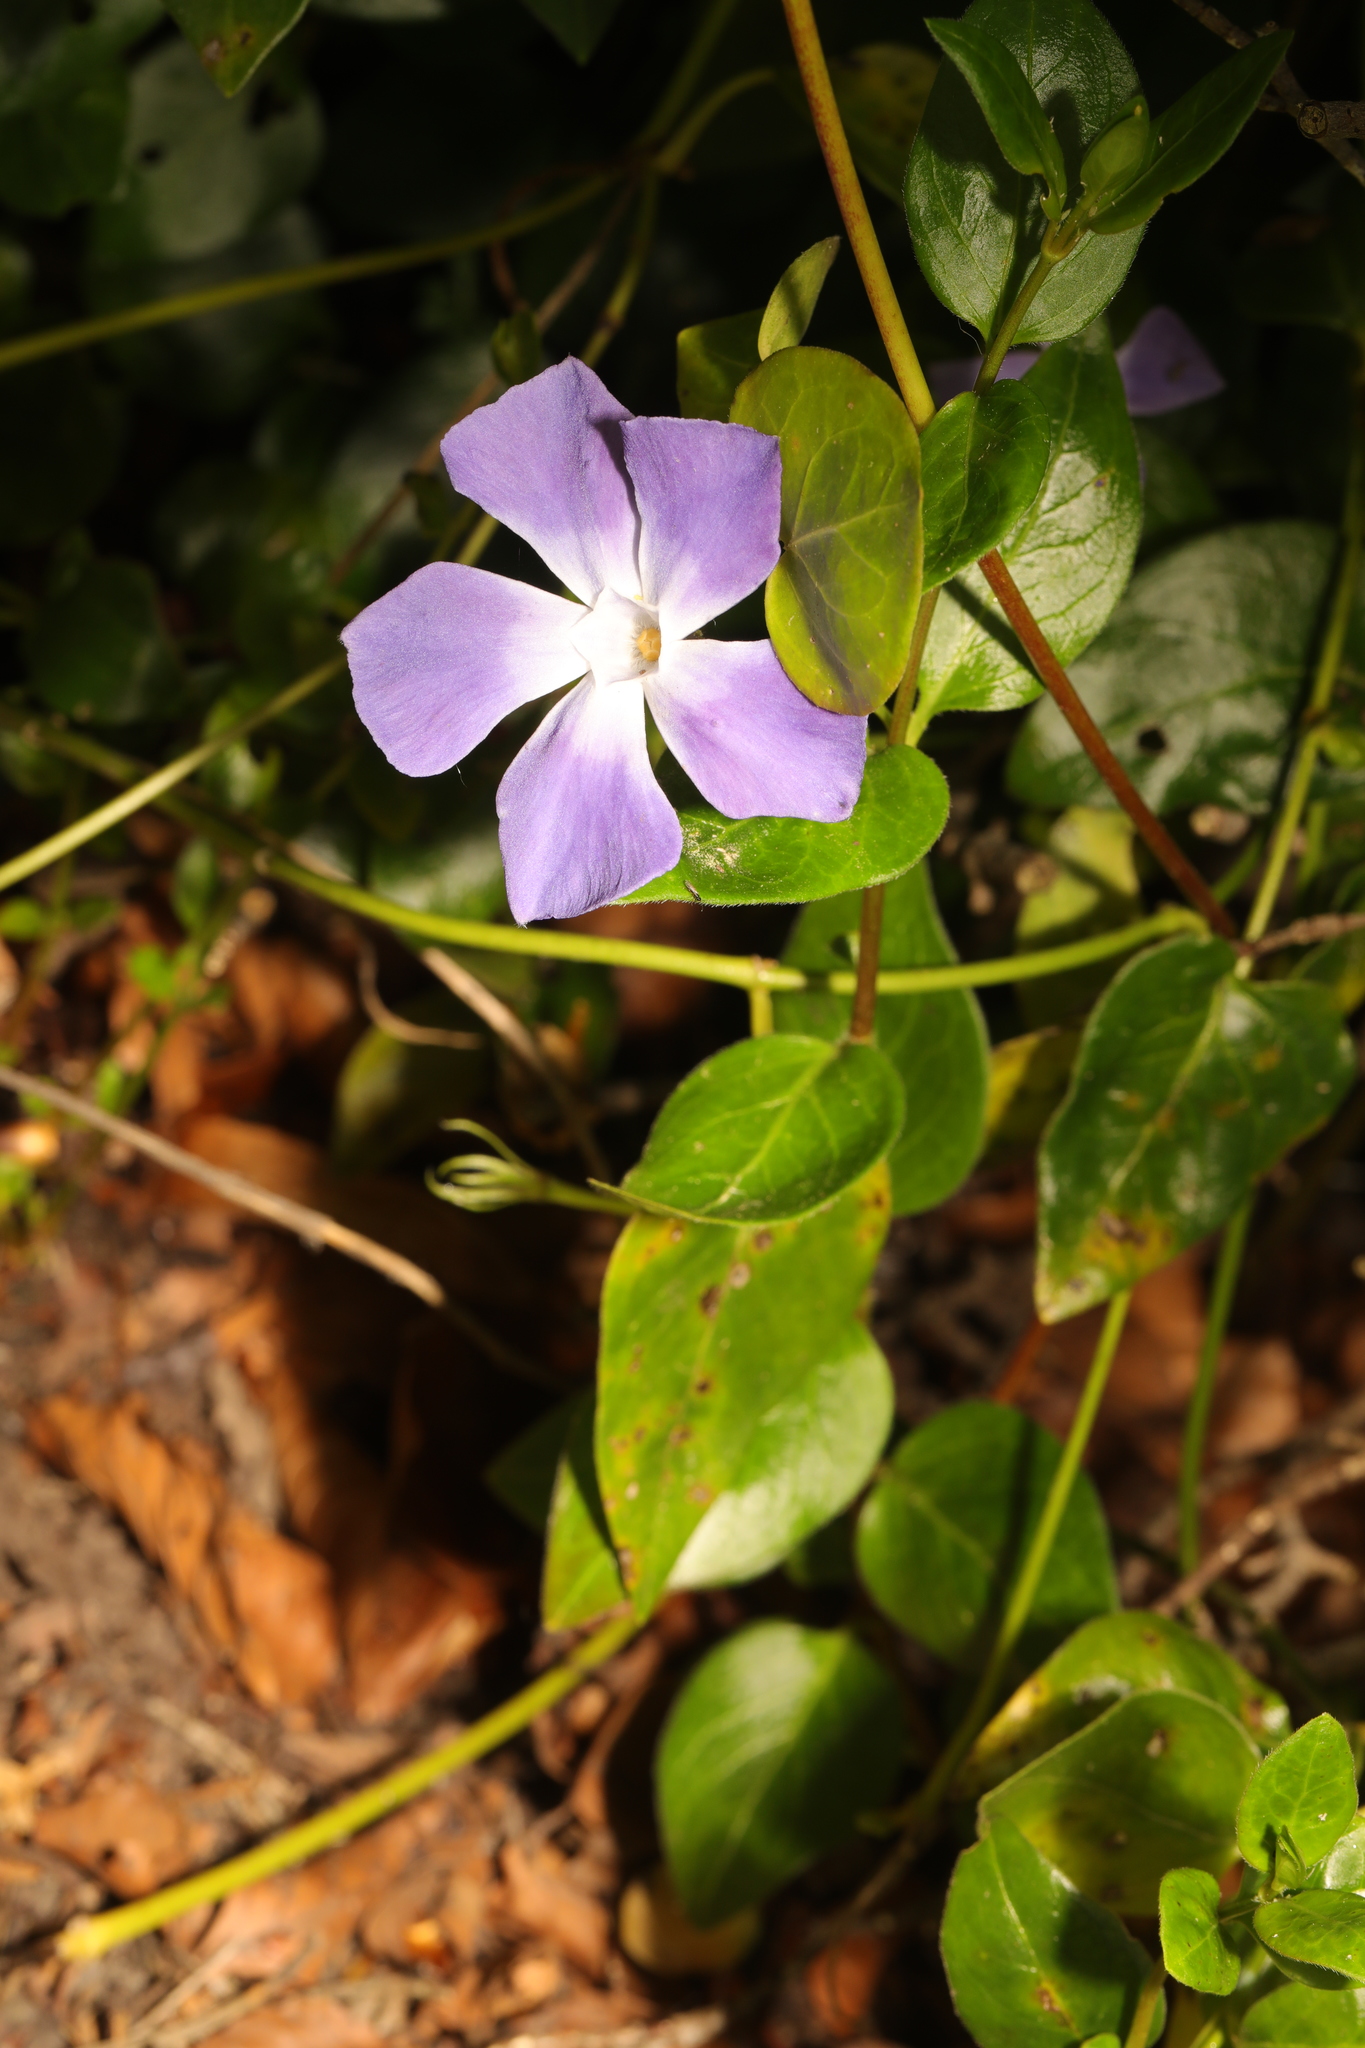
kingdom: Plantae
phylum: Tracheophyta
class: Magnoliopsida
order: Gentianales
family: Apocynaceae
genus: Vinca
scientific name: Vinca major
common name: Greater periwinkle
